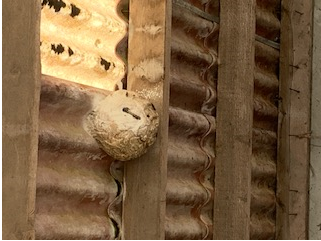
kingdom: Animalia
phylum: Arthropoda
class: Insecta
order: Hymenoptera
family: Vespidae
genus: Vespa
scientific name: Vespa velutina
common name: Asian hornet
